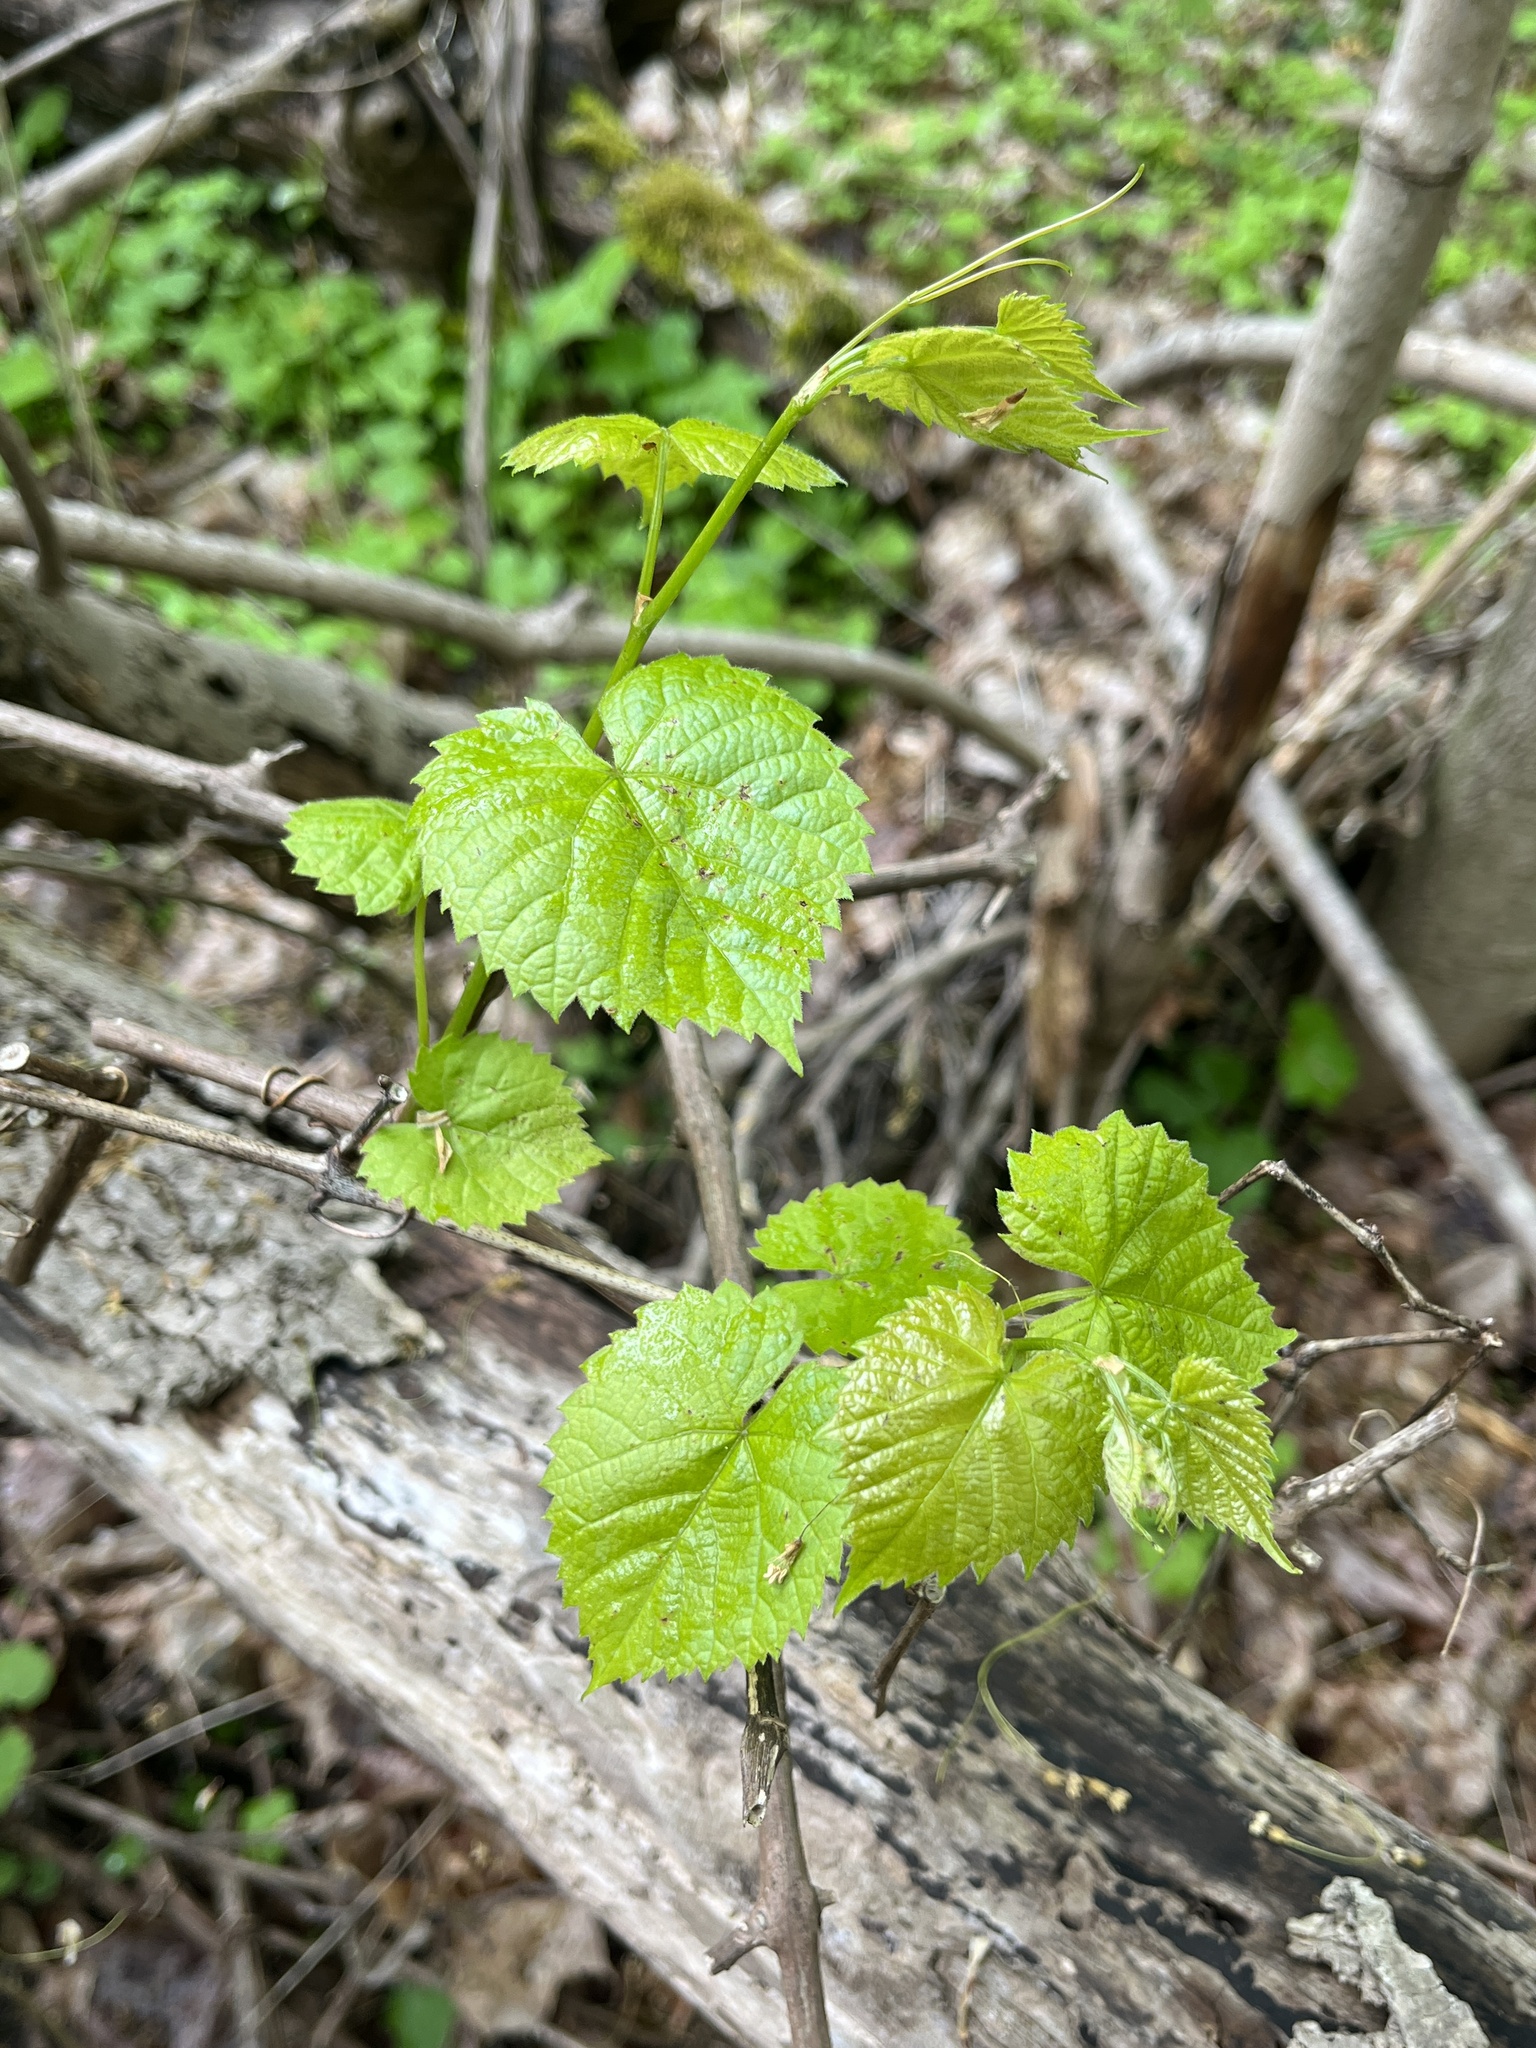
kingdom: Plantae
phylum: Tracheophyta
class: Magnoliopsida
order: Vitales
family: Vitaceae
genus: Vitis
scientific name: Vitis vulpina
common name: Frost grape
